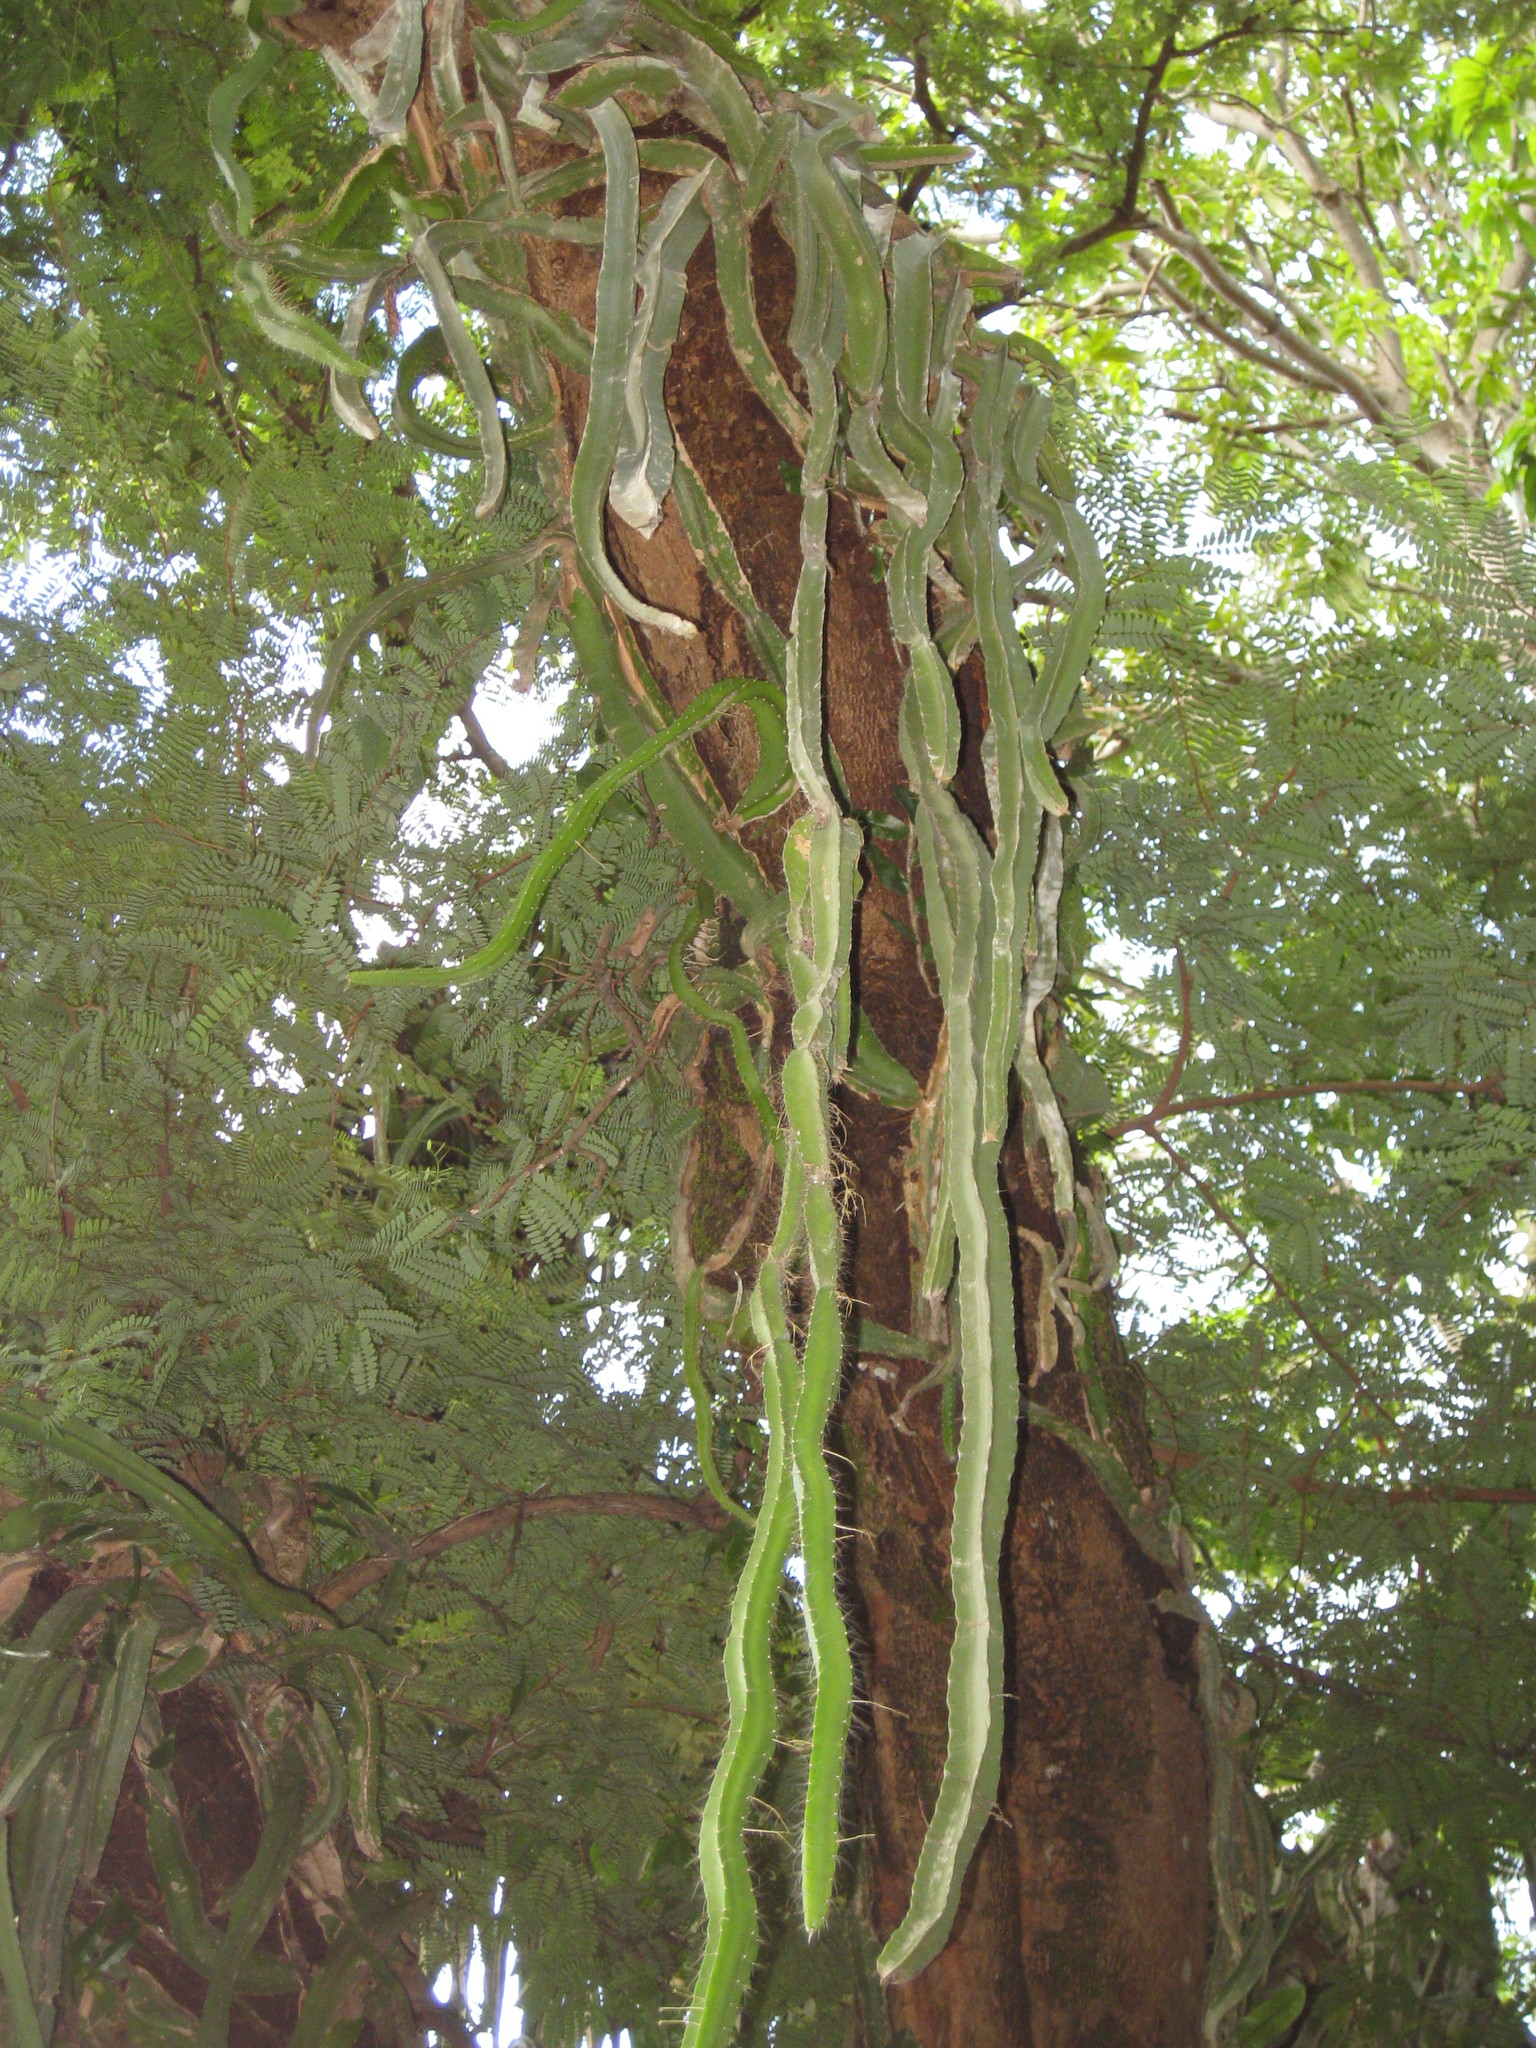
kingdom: Plantae
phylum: Tracheophyta
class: Magnoliopsida
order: Caryophyllales
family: Cactaceae
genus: Deamia
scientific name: Deamia testudo
